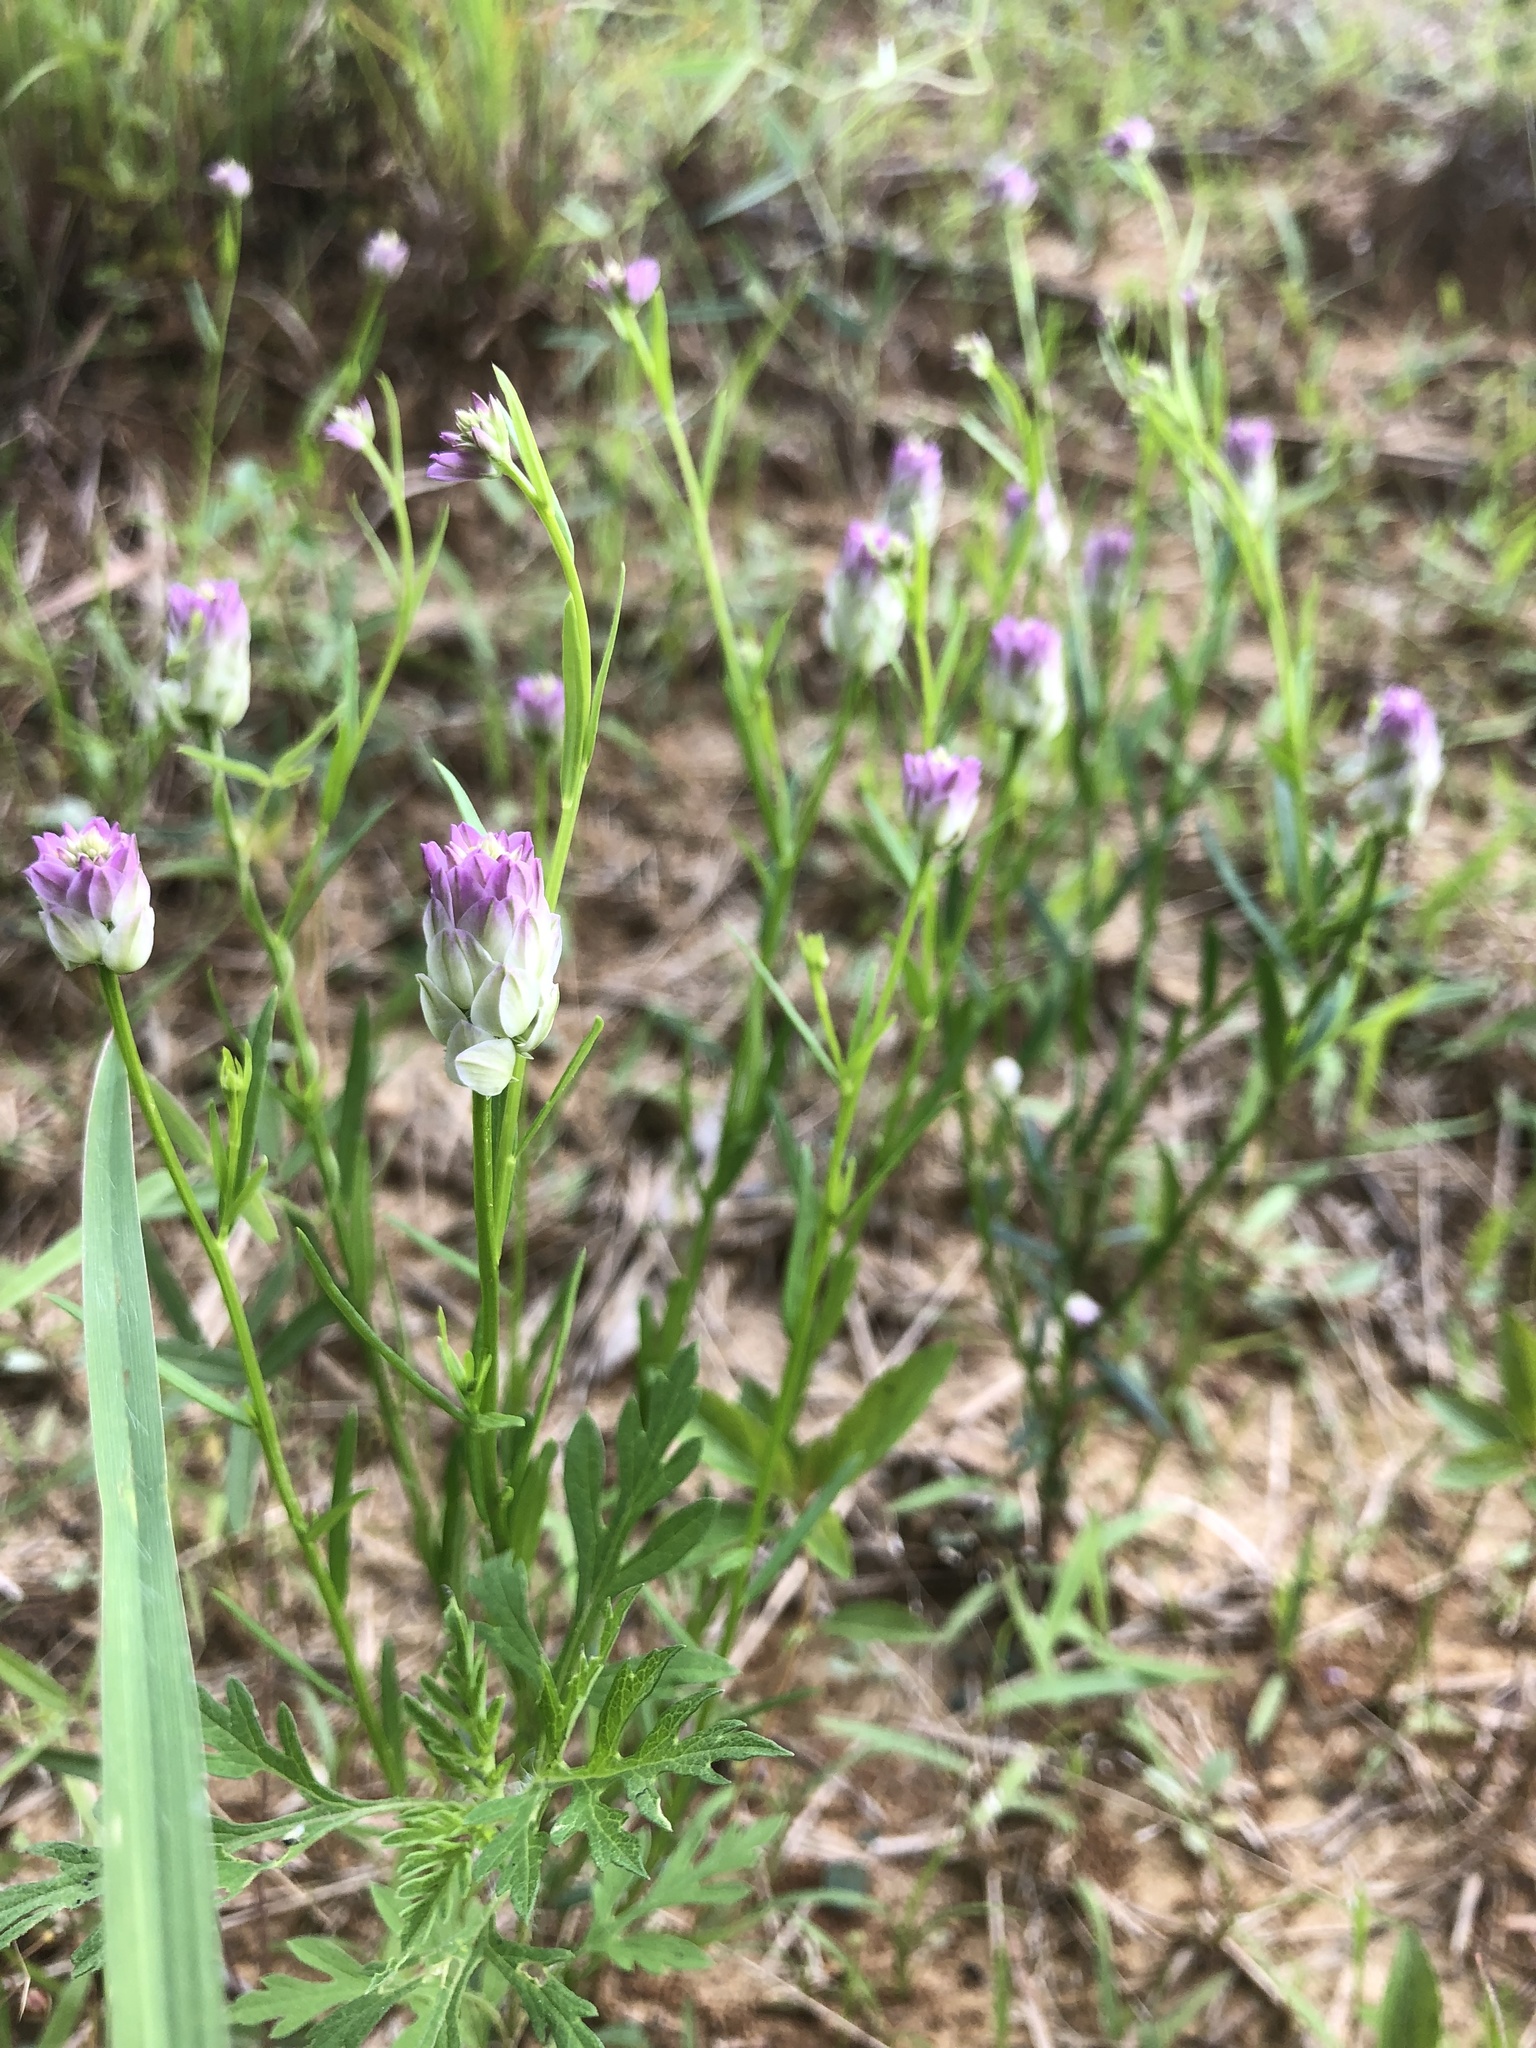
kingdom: Plantae
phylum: Tracheophyta
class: Magnoliopsida
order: Fabales
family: Polygalaceae
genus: Polygala
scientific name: Polygala sanguinea
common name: Blood milkwort
